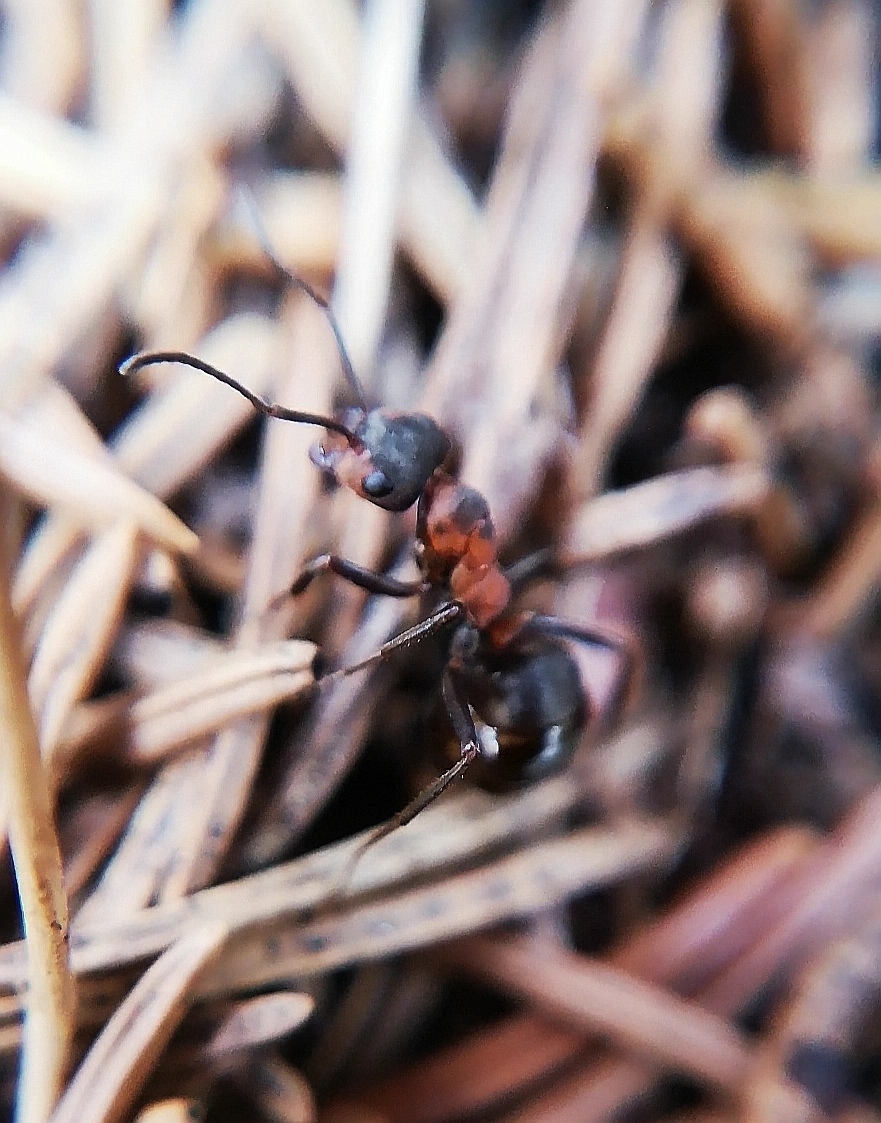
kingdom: Animalia
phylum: Arthropoda
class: Insecta
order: Hymenoptera
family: Formicidae
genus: Formica
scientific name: Formica
